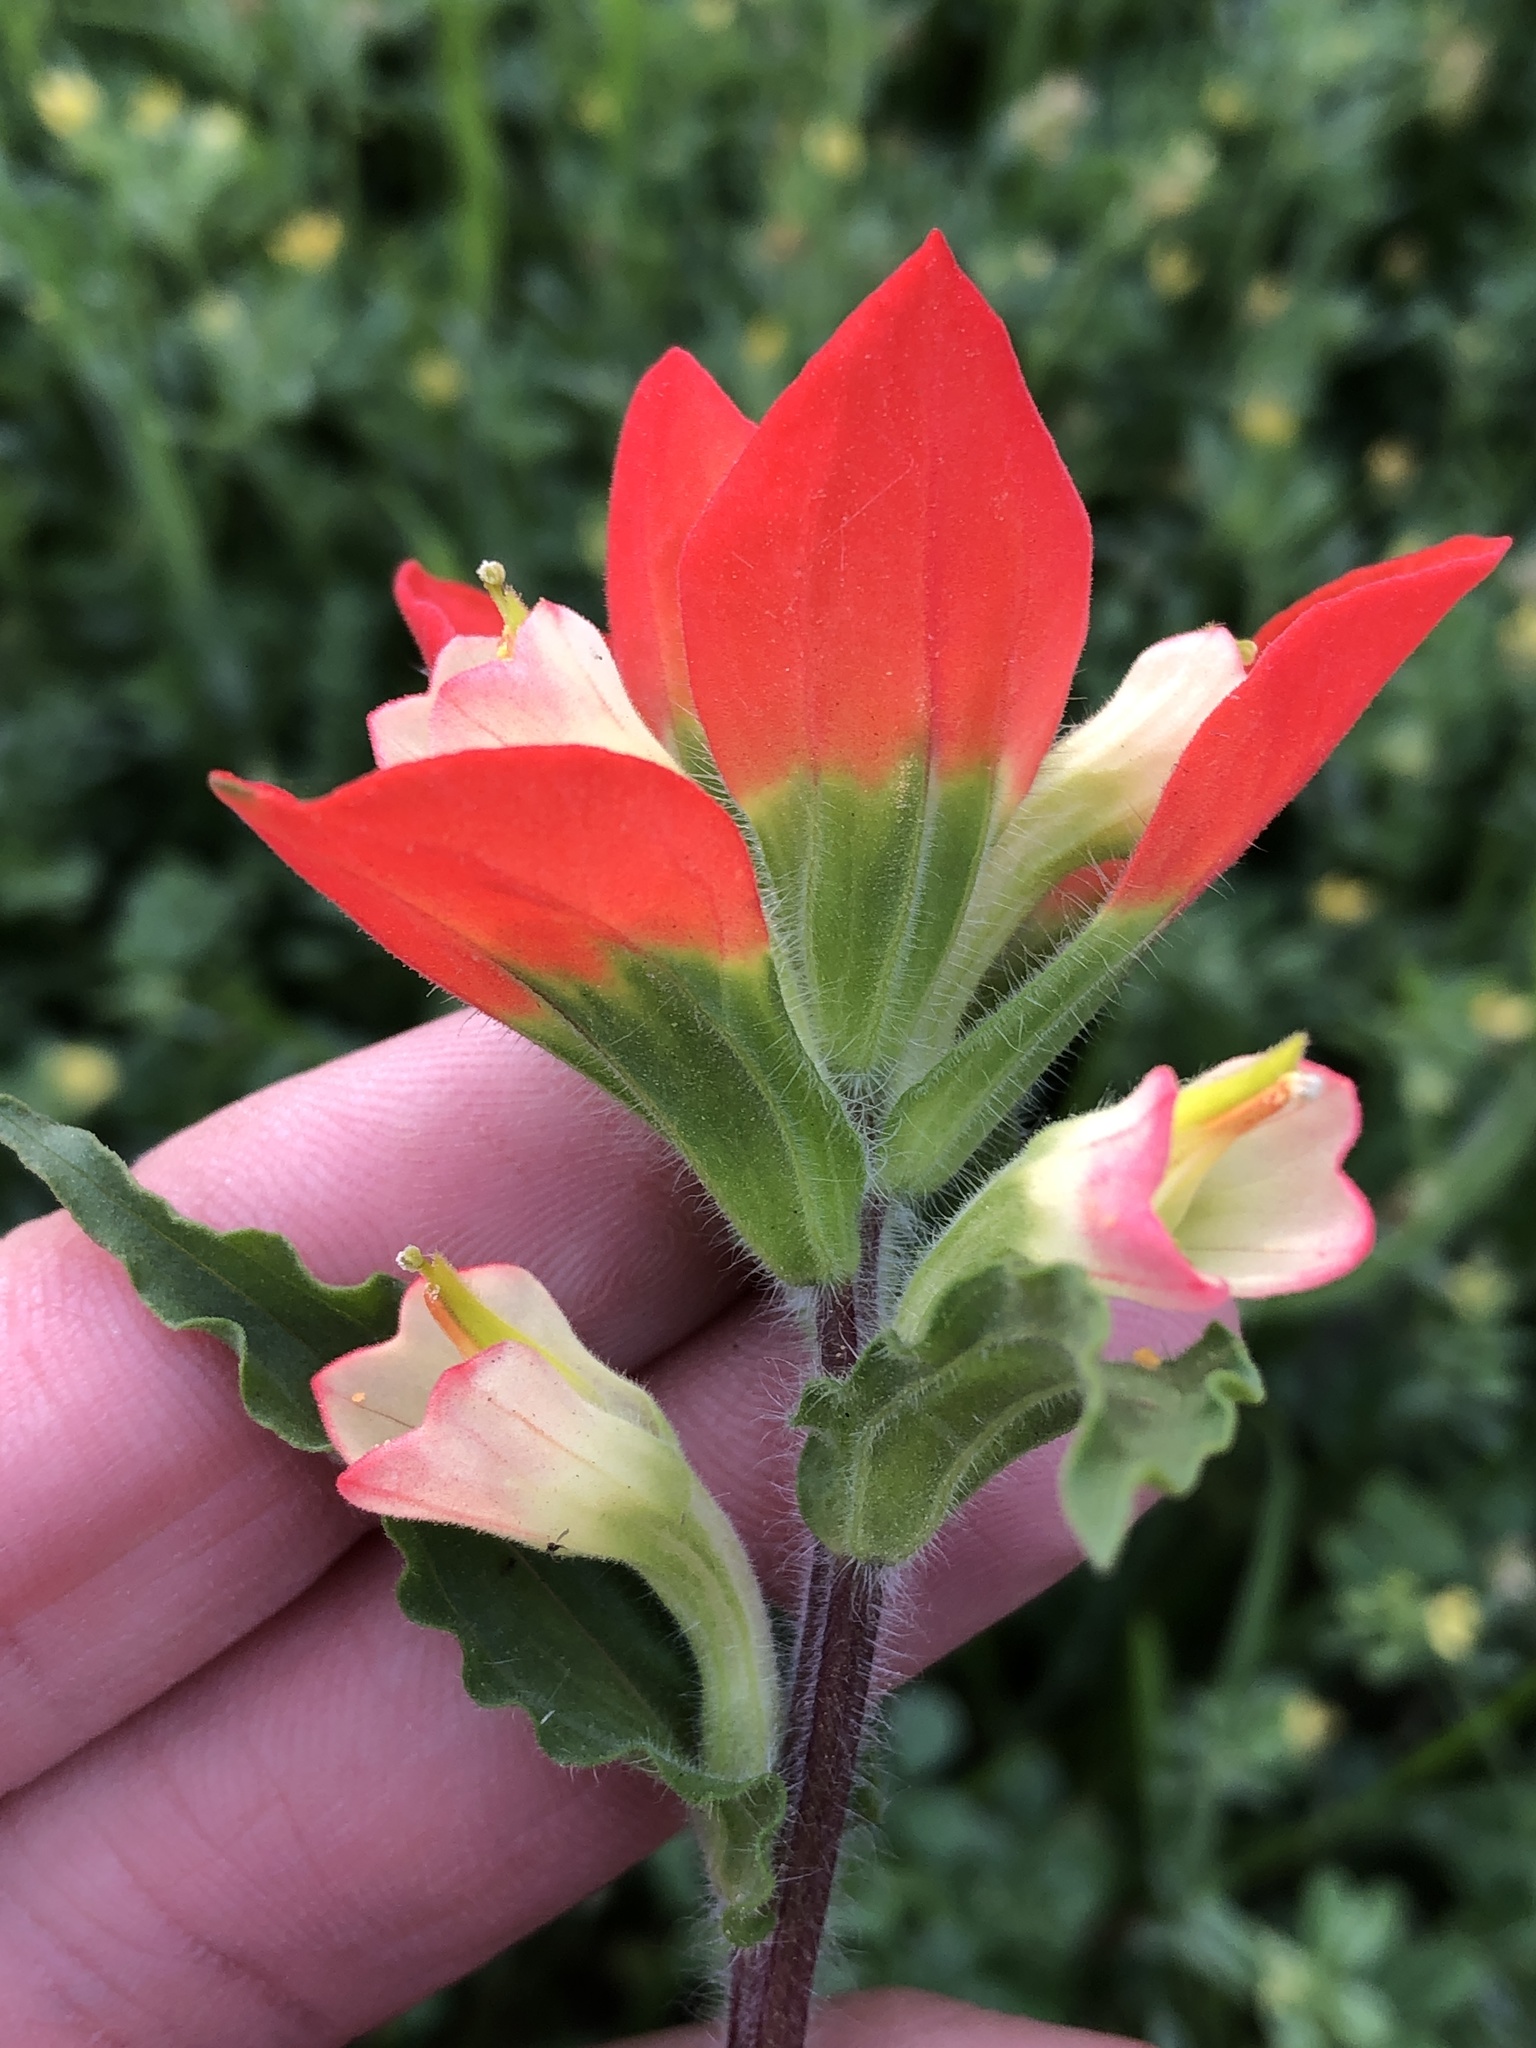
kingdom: Plantae
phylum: Tracheophyta
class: Magnoliopsida
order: Lamiales
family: Orobanchaceae
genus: Castilleja
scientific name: Castilleja indivisa
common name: Texas paintbrush
